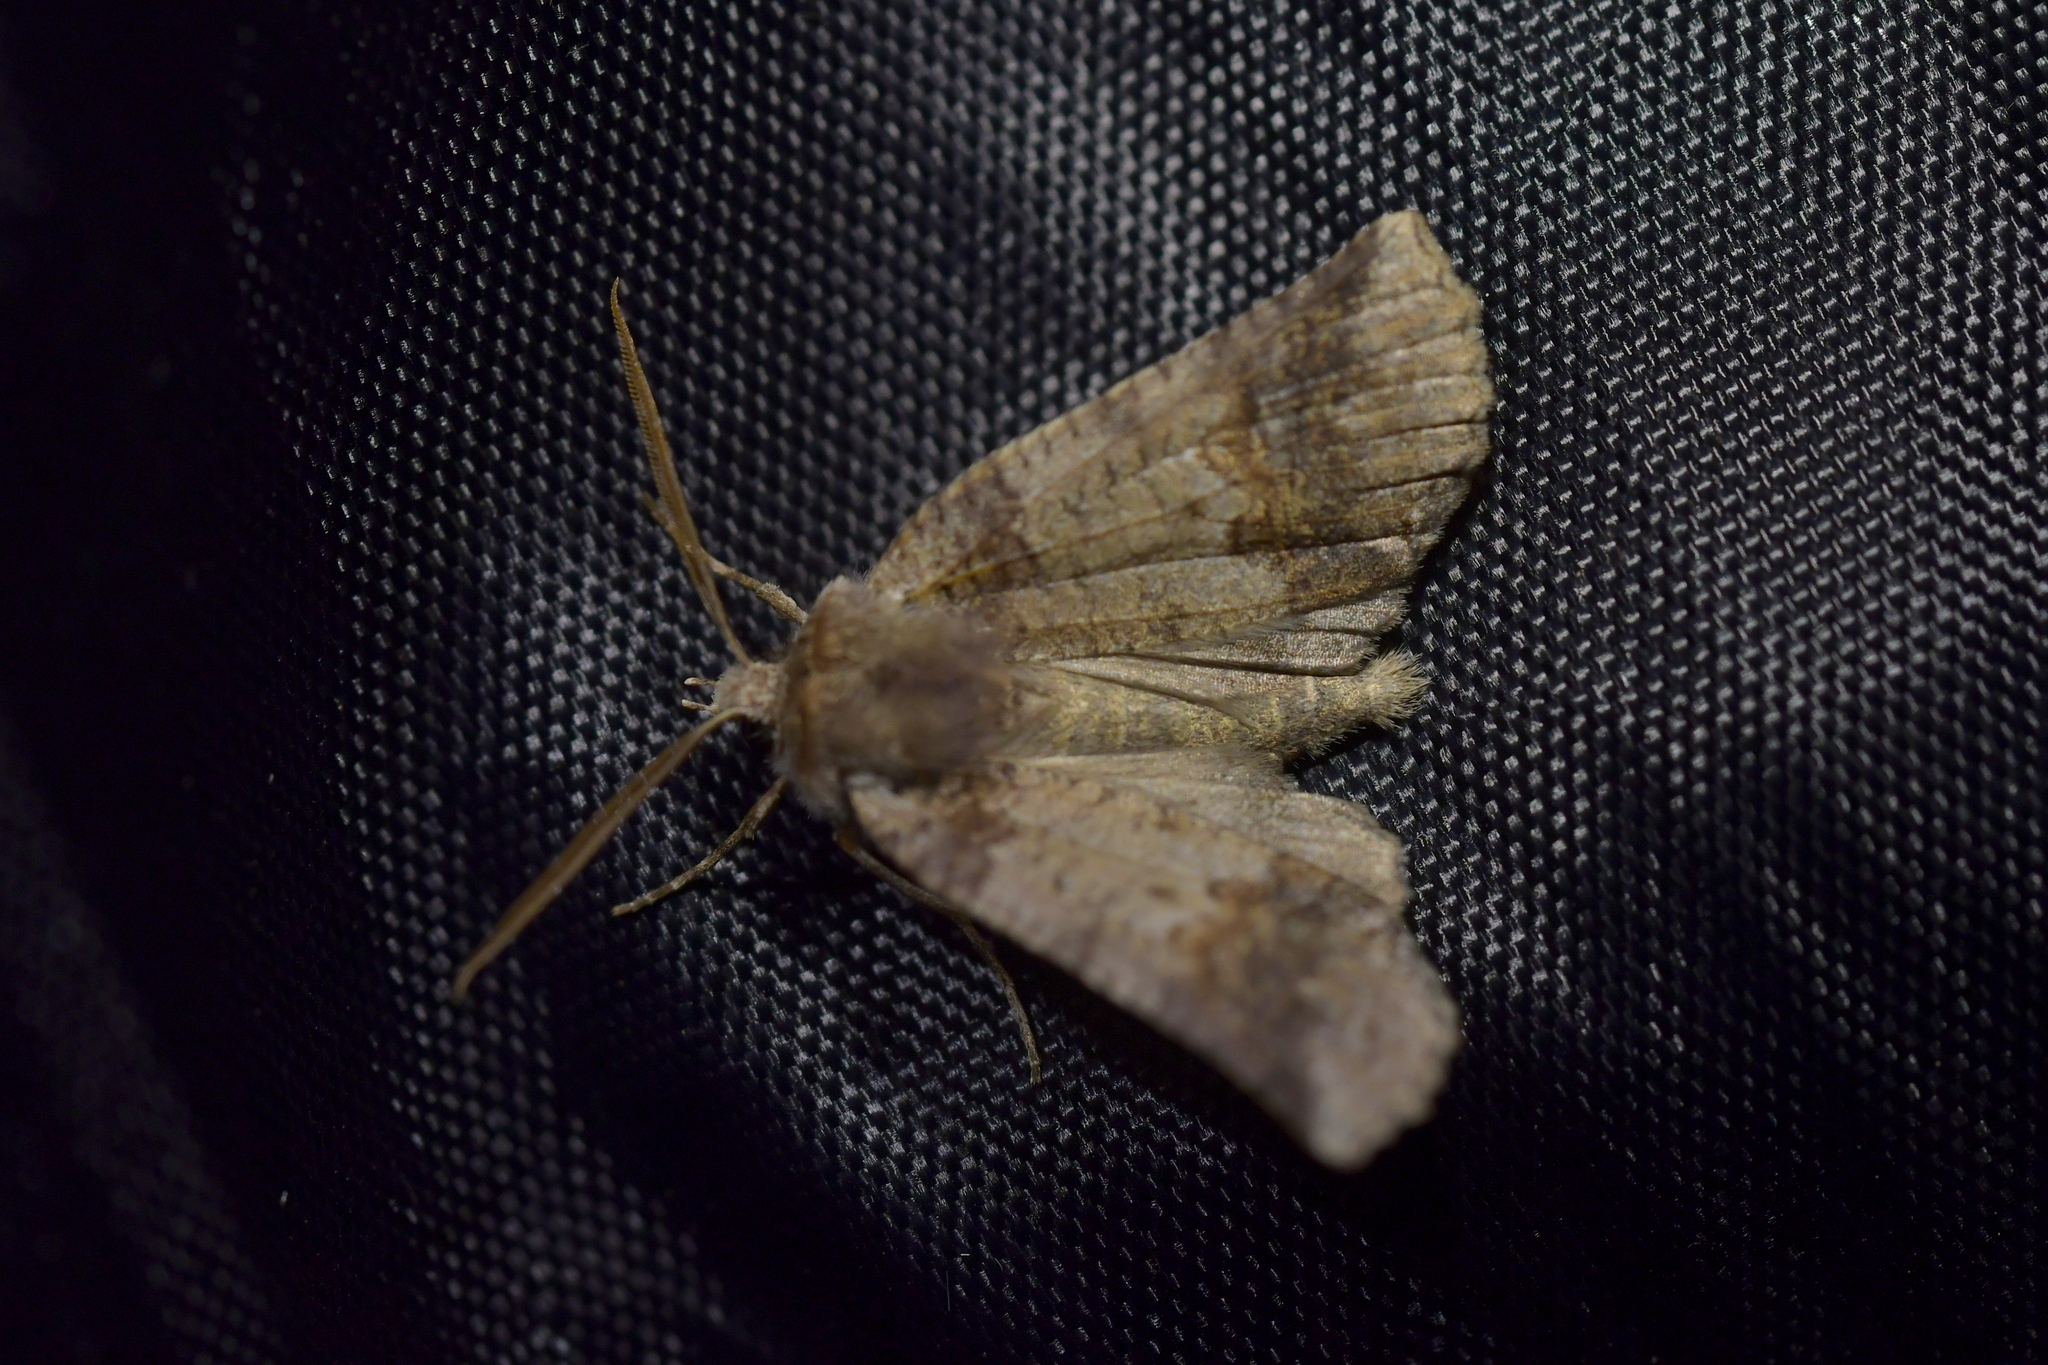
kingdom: Animalia
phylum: Arthropoda
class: Insecta
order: Lepidoptera
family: Geometridae
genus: Declana
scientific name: Declana
